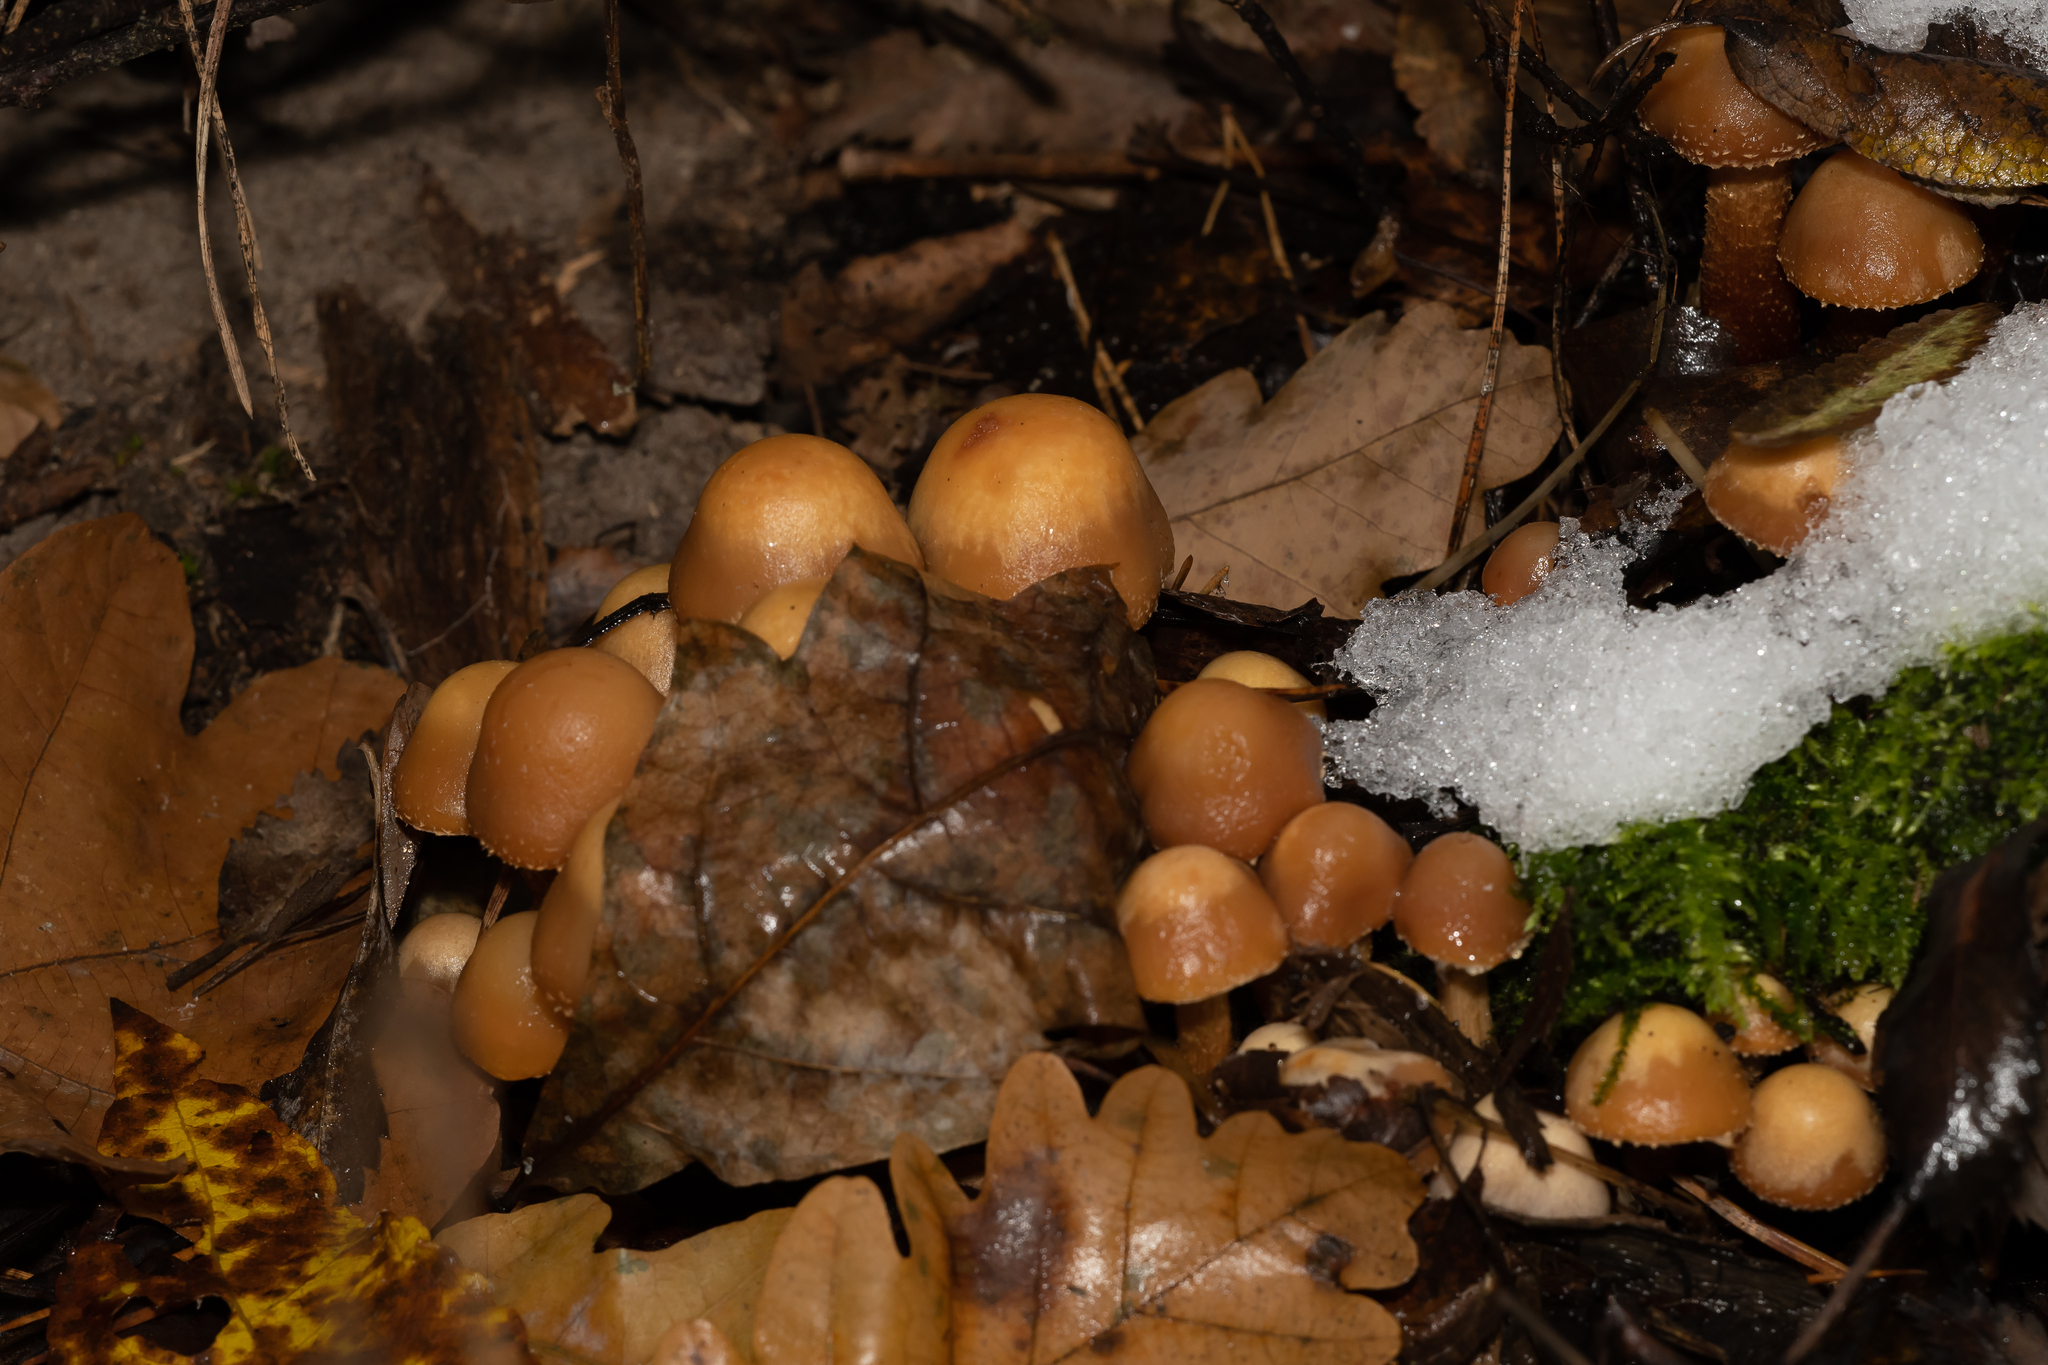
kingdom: Fungi
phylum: Basidiomycota
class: Agaricomycetes
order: Agaricales
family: Strophariaceae
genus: Kuehneromyces
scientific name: Kuehneromyces mutabilis
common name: Sheathed woodtuft
